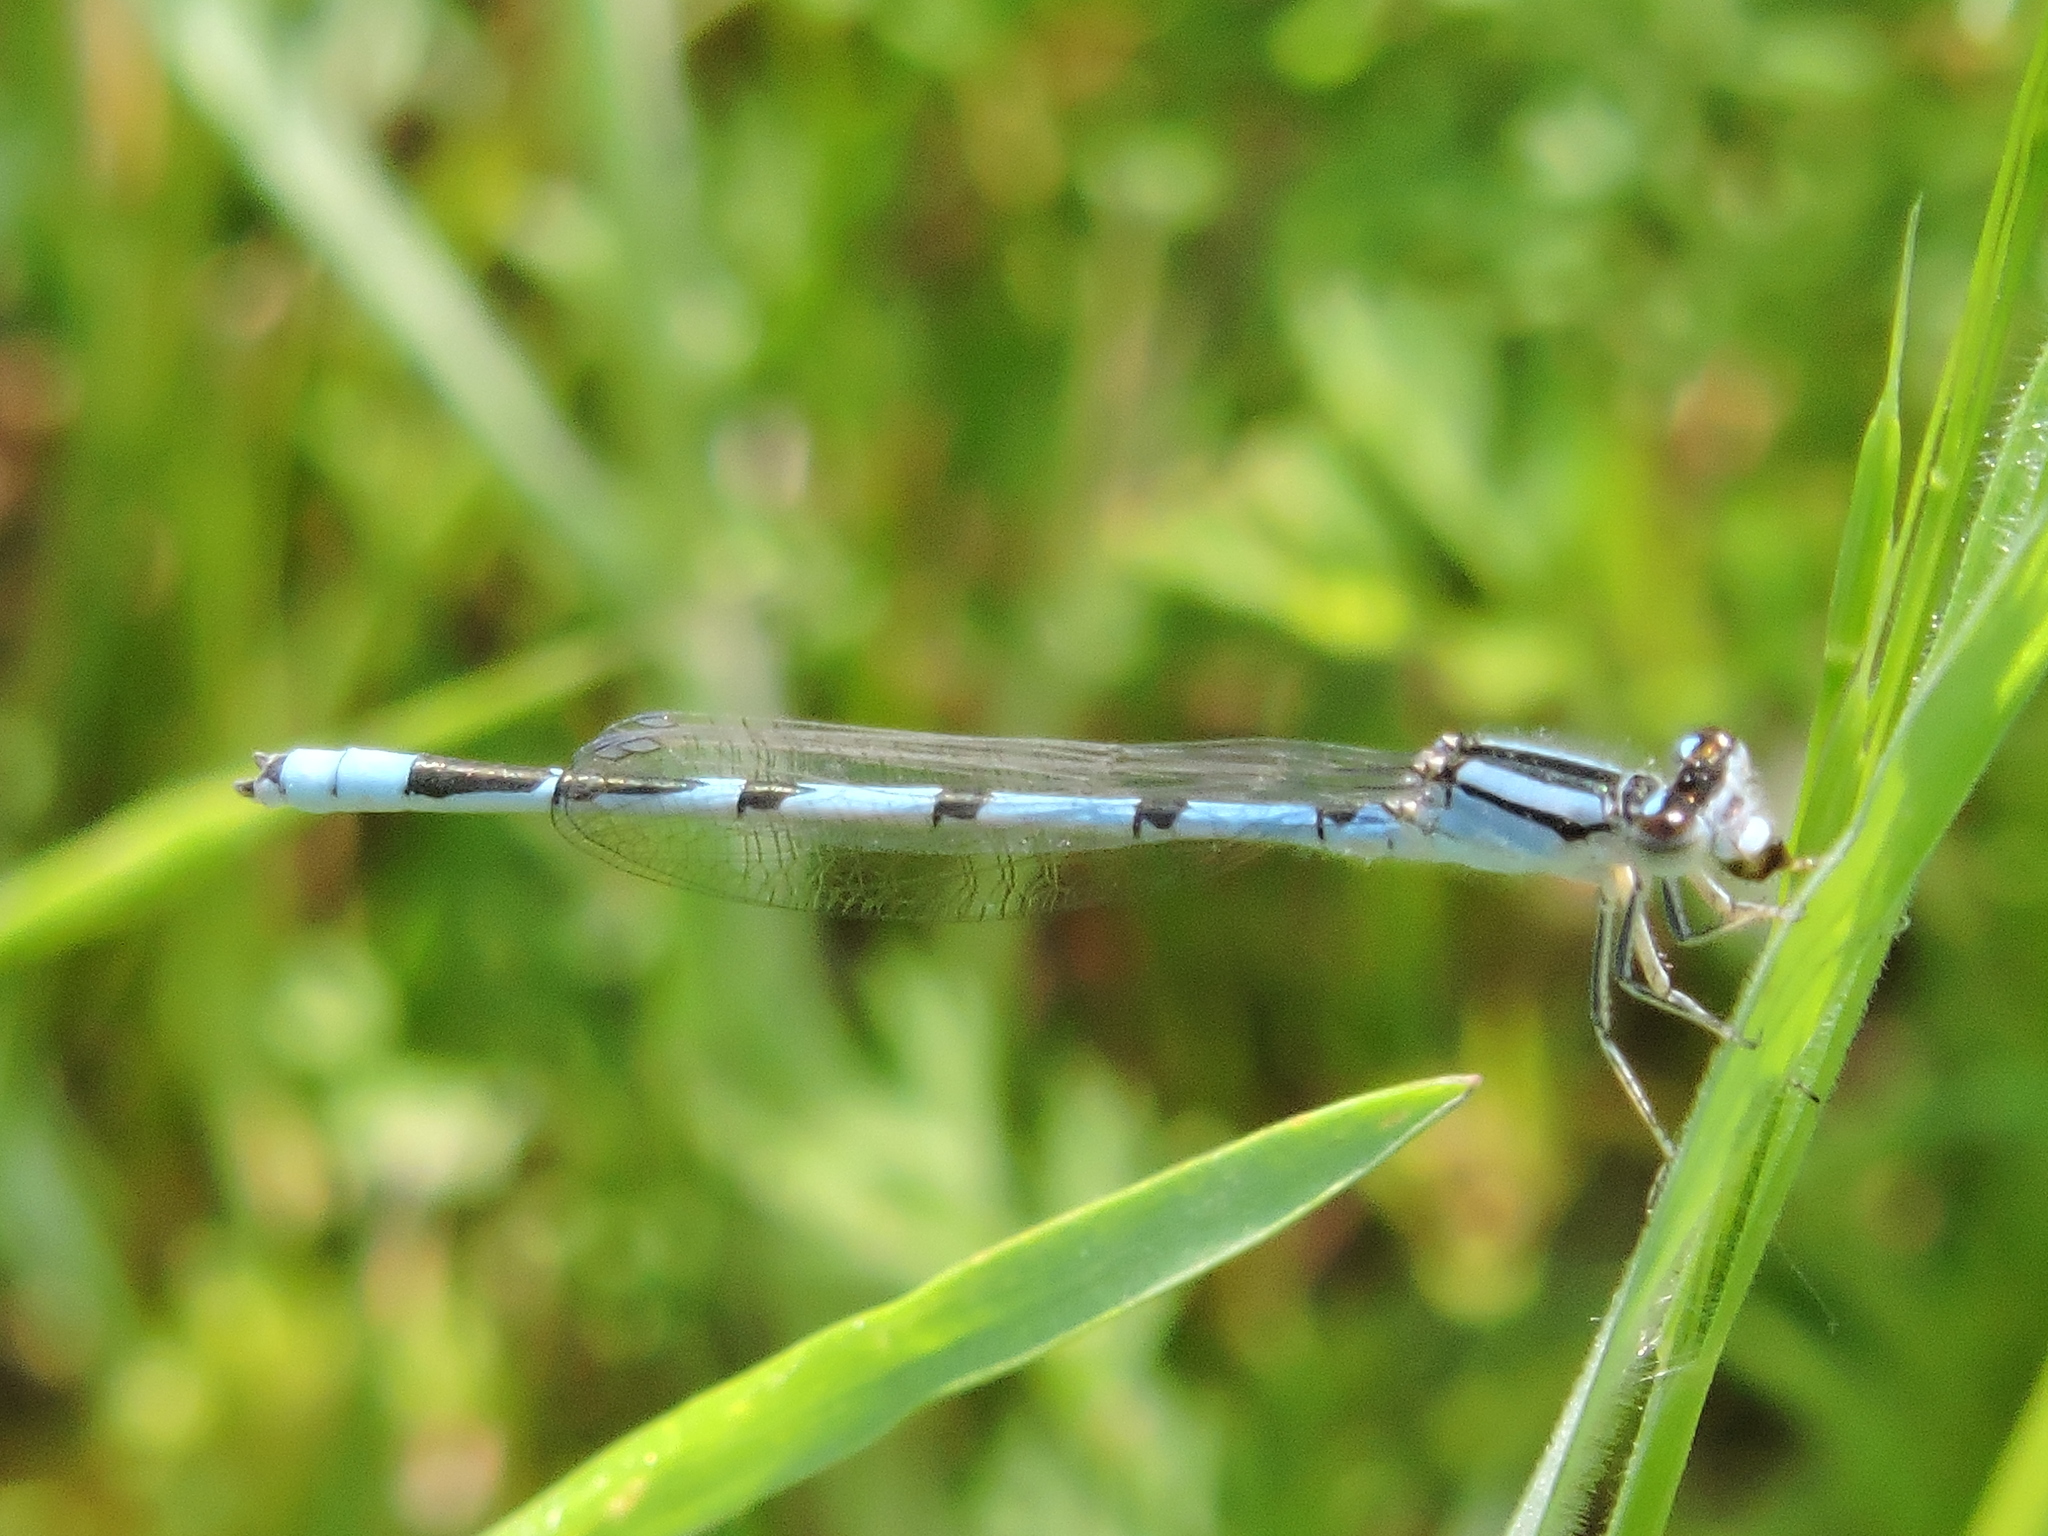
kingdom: Animalia
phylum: Arthropoda
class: Insecta
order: Odonata
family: Coenagrionidae
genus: Enallagma
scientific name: Enallagma civile
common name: Damselfly
